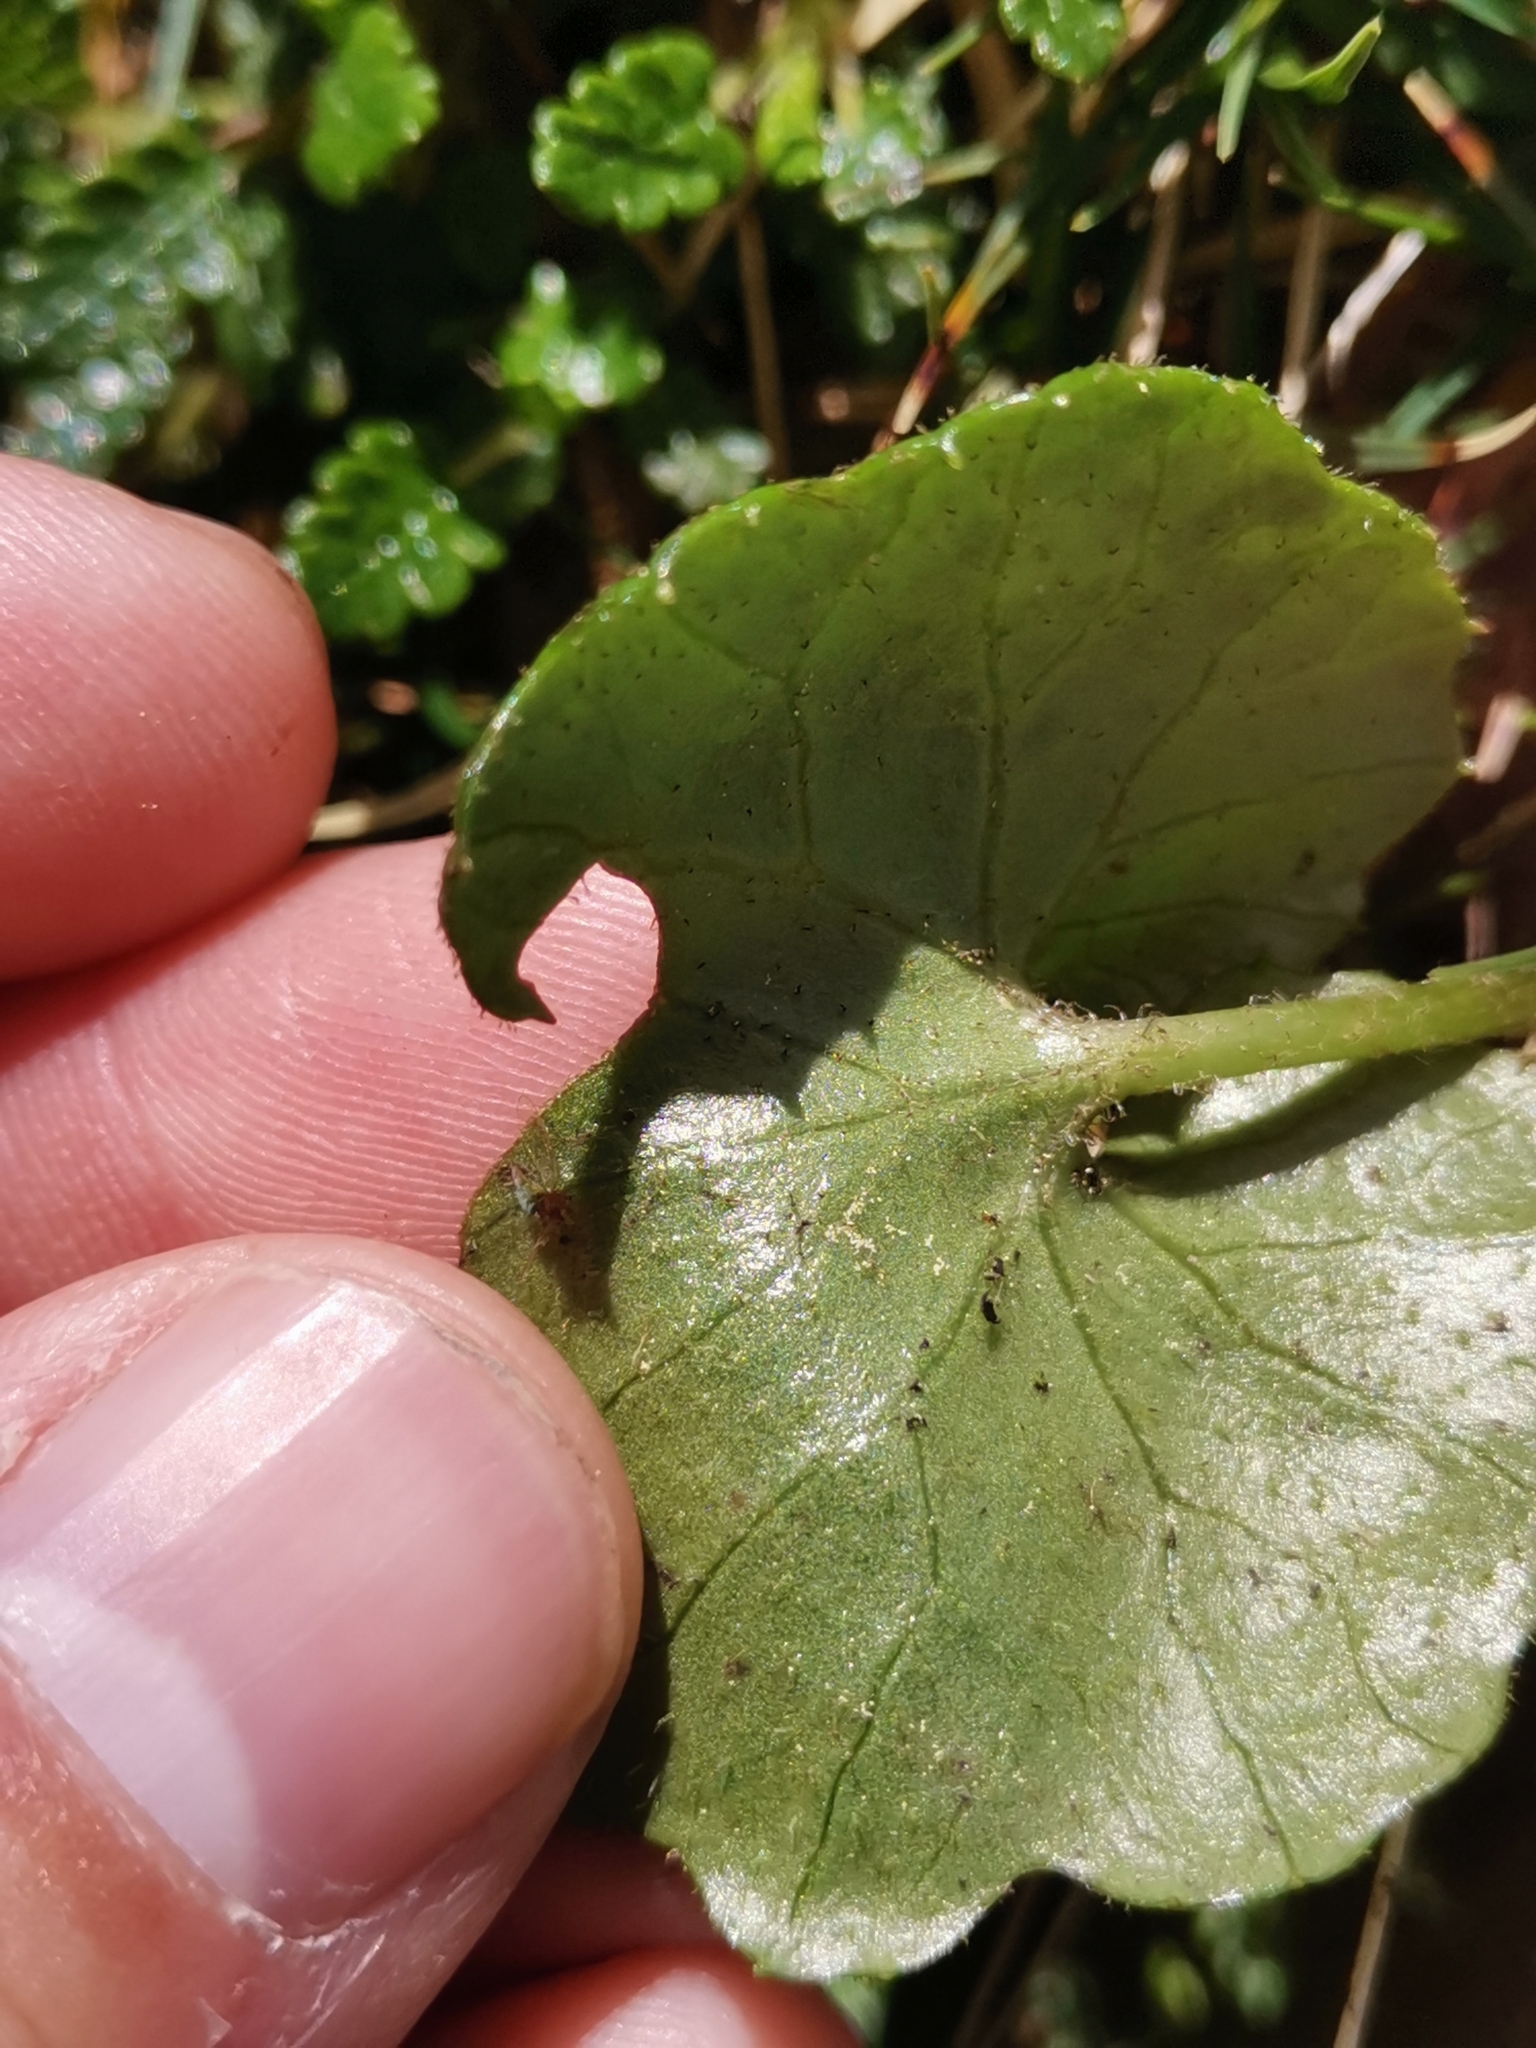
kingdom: Plantae
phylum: Tracheophyta
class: Magnoliopsida
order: Asterales
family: Asteraceae
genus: Homogyne
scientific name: Homogyne alpina
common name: Purple colt's-foot
